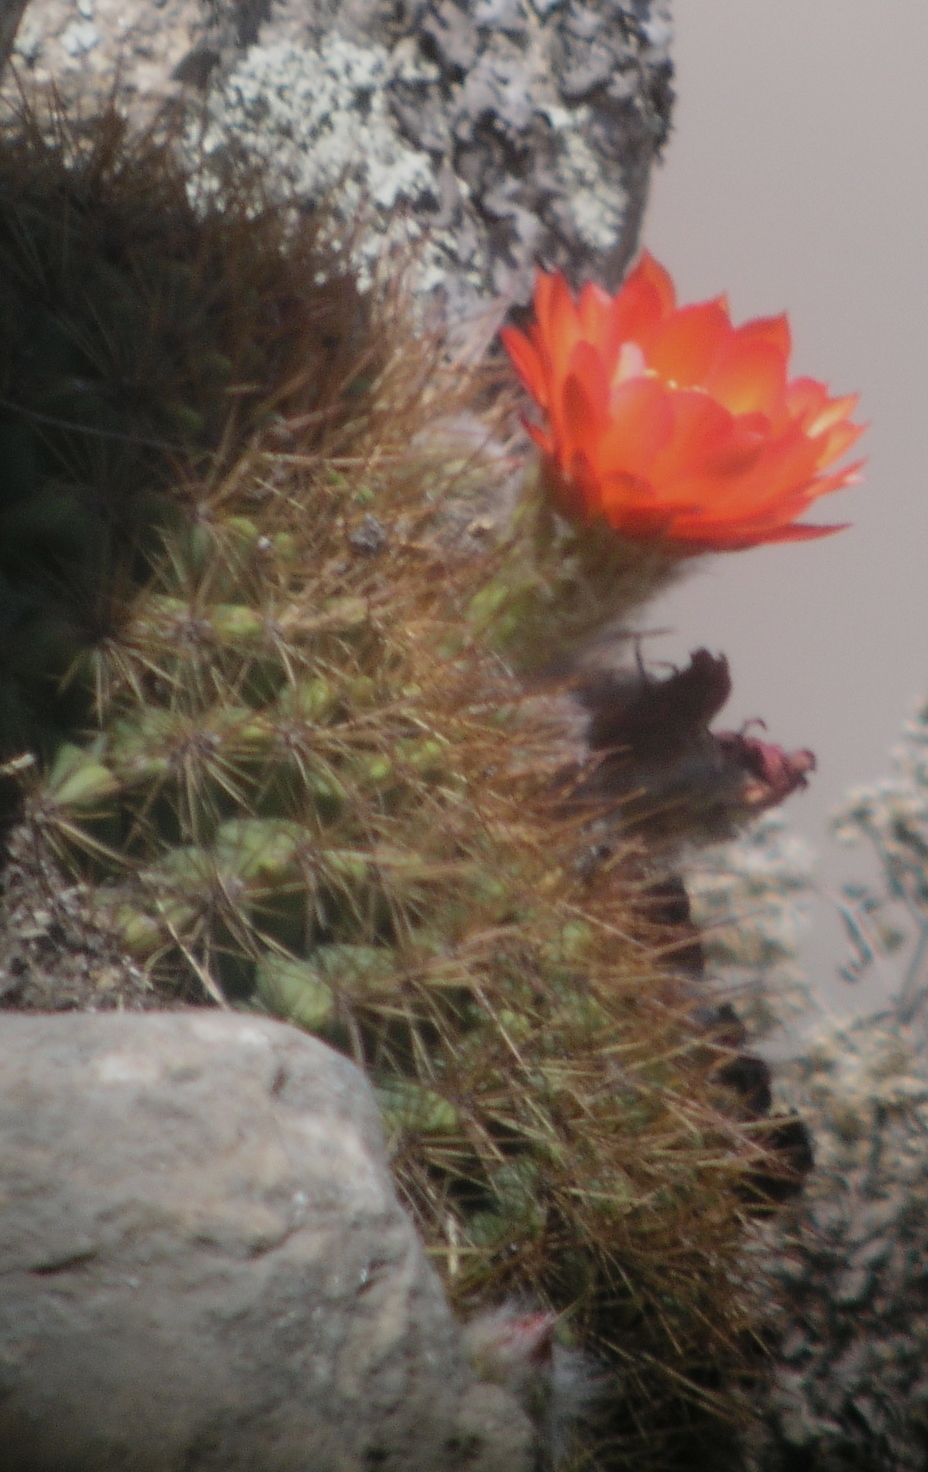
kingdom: Plantae
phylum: Tracheophyta
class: Magnoliopsida
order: Caryophyllales
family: Cactaceae
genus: Soehrensia
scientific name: Soehrensia bruchii
